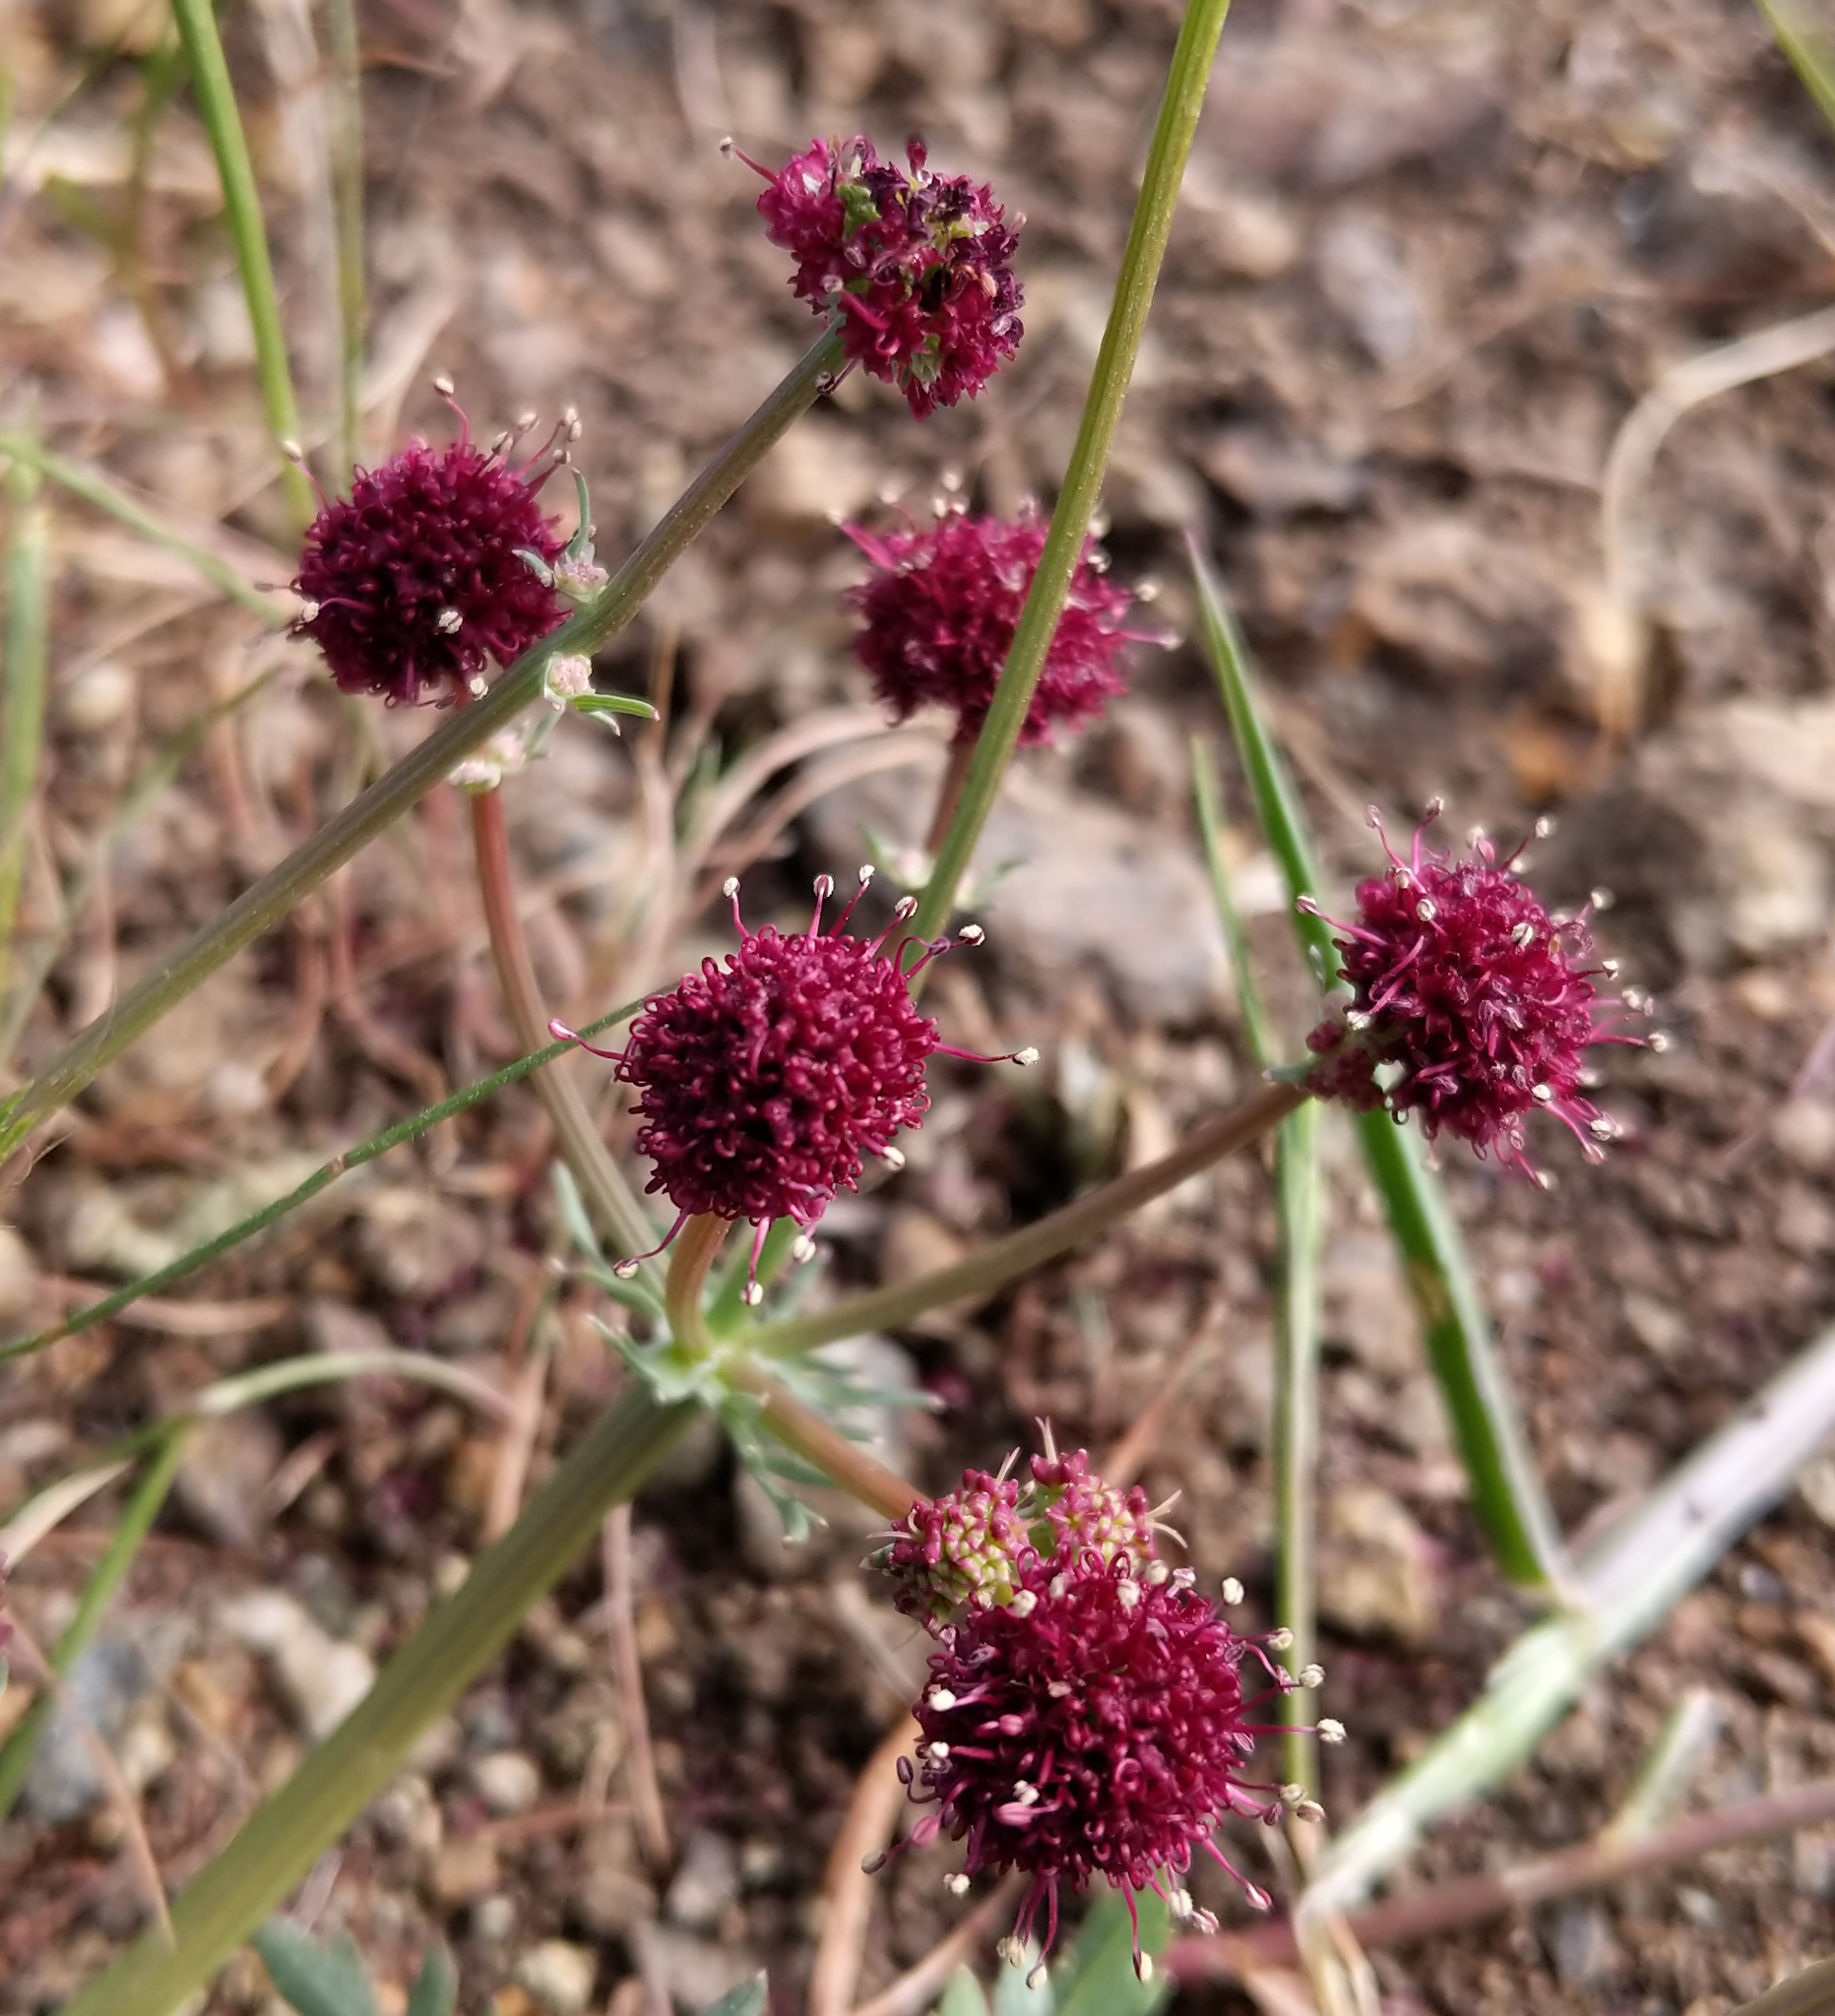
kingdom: Plantae
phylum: Tracheophyta
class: Magnoliopsida
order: Apiales
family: Apiaceae
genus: Sanicula
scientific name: Sanicula bipinnatifida
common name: Shoe-buttons
